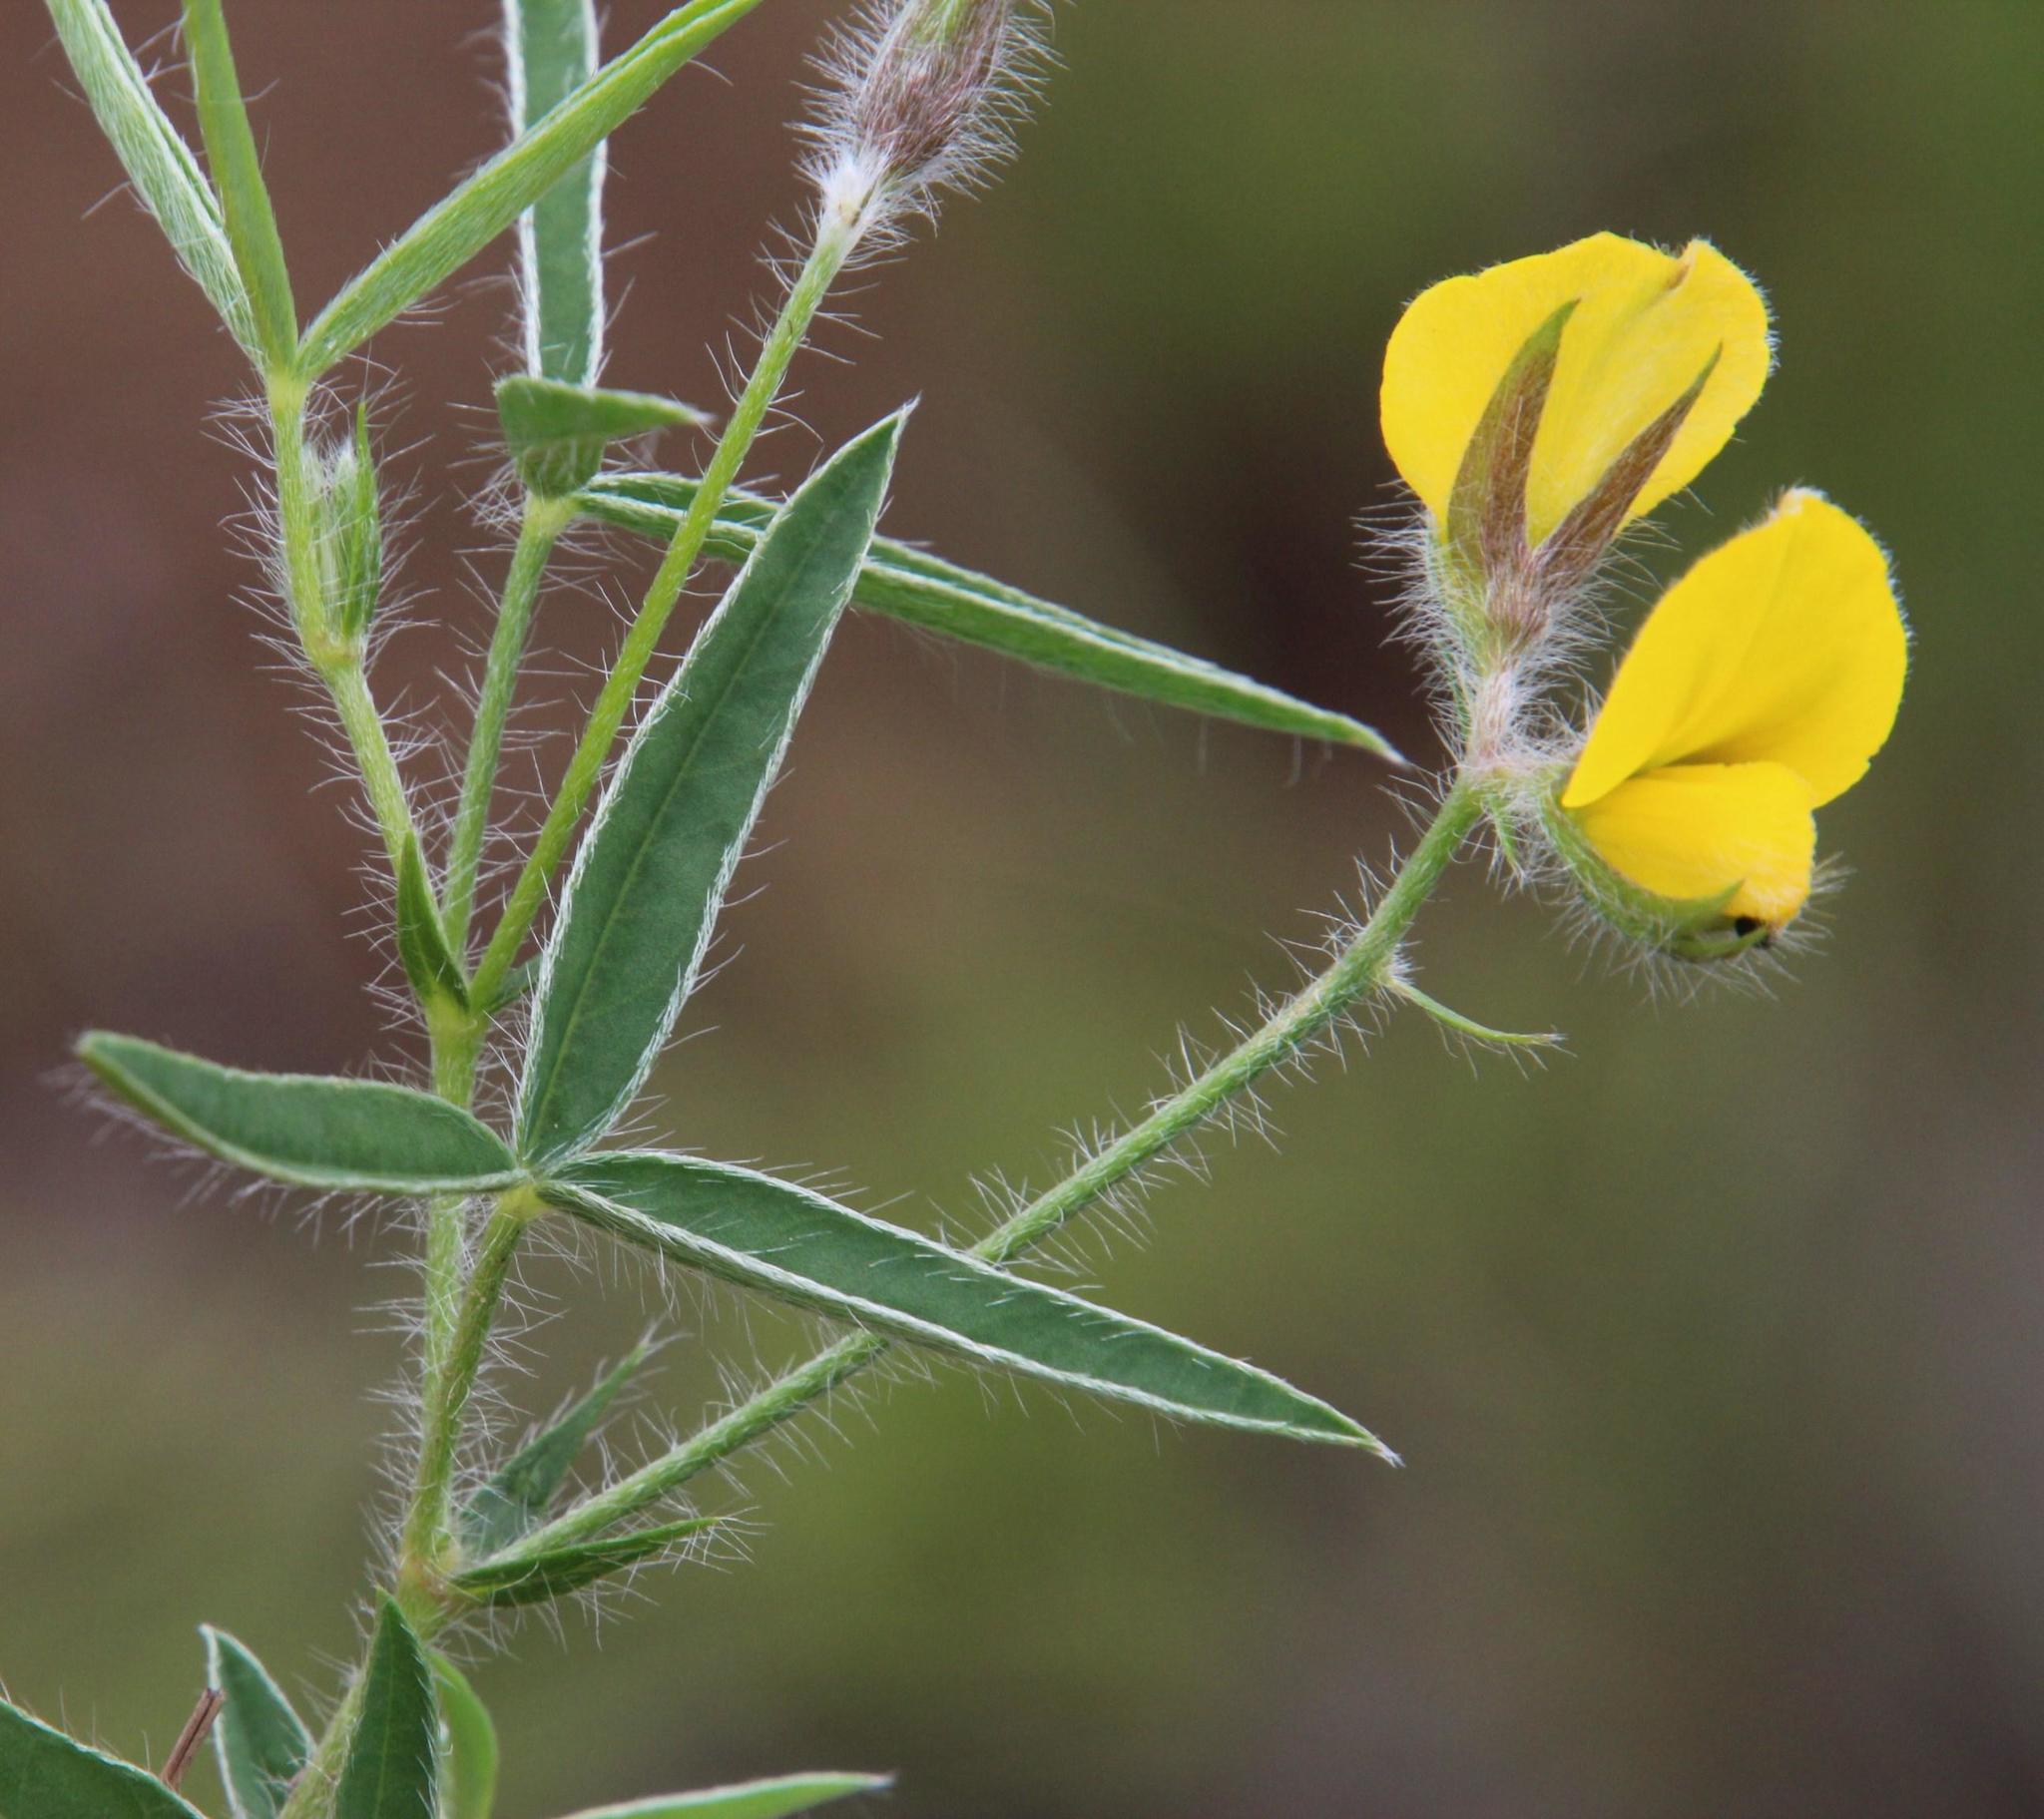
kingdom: Plantae
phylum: Tracheophyta
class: Magnoliopsida
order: Fabales
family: Fabaceae
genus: Argyrolobium
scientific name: Argyrolobium pauciflorum
